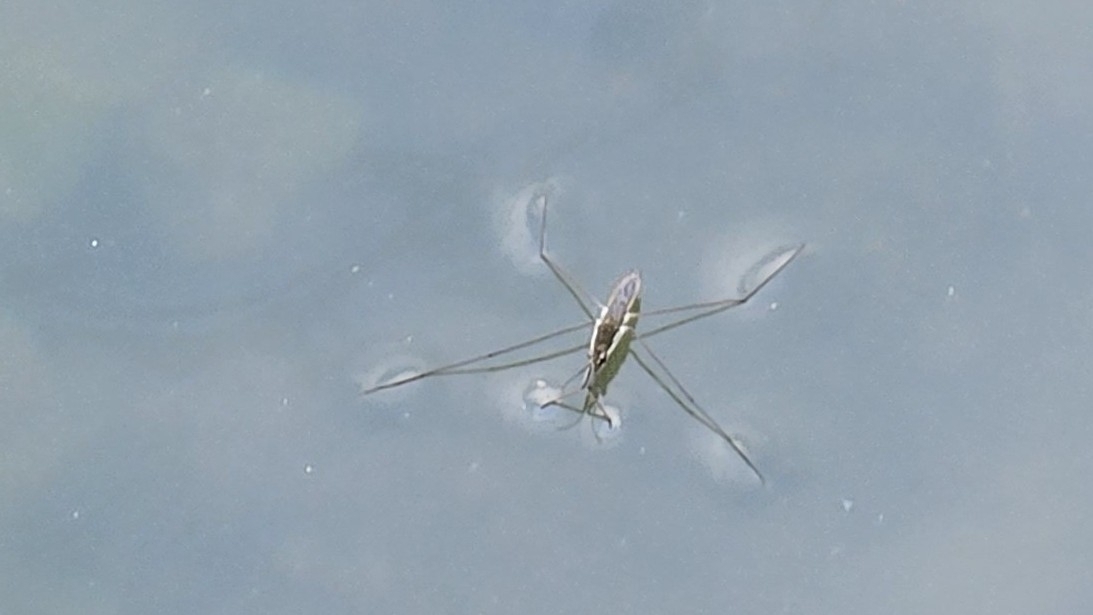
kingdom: Animalia
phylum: Arthropoda
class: Insecta
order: Hemiptera
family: Gerridae
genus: Aquarius
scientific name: Aquarius paludum
